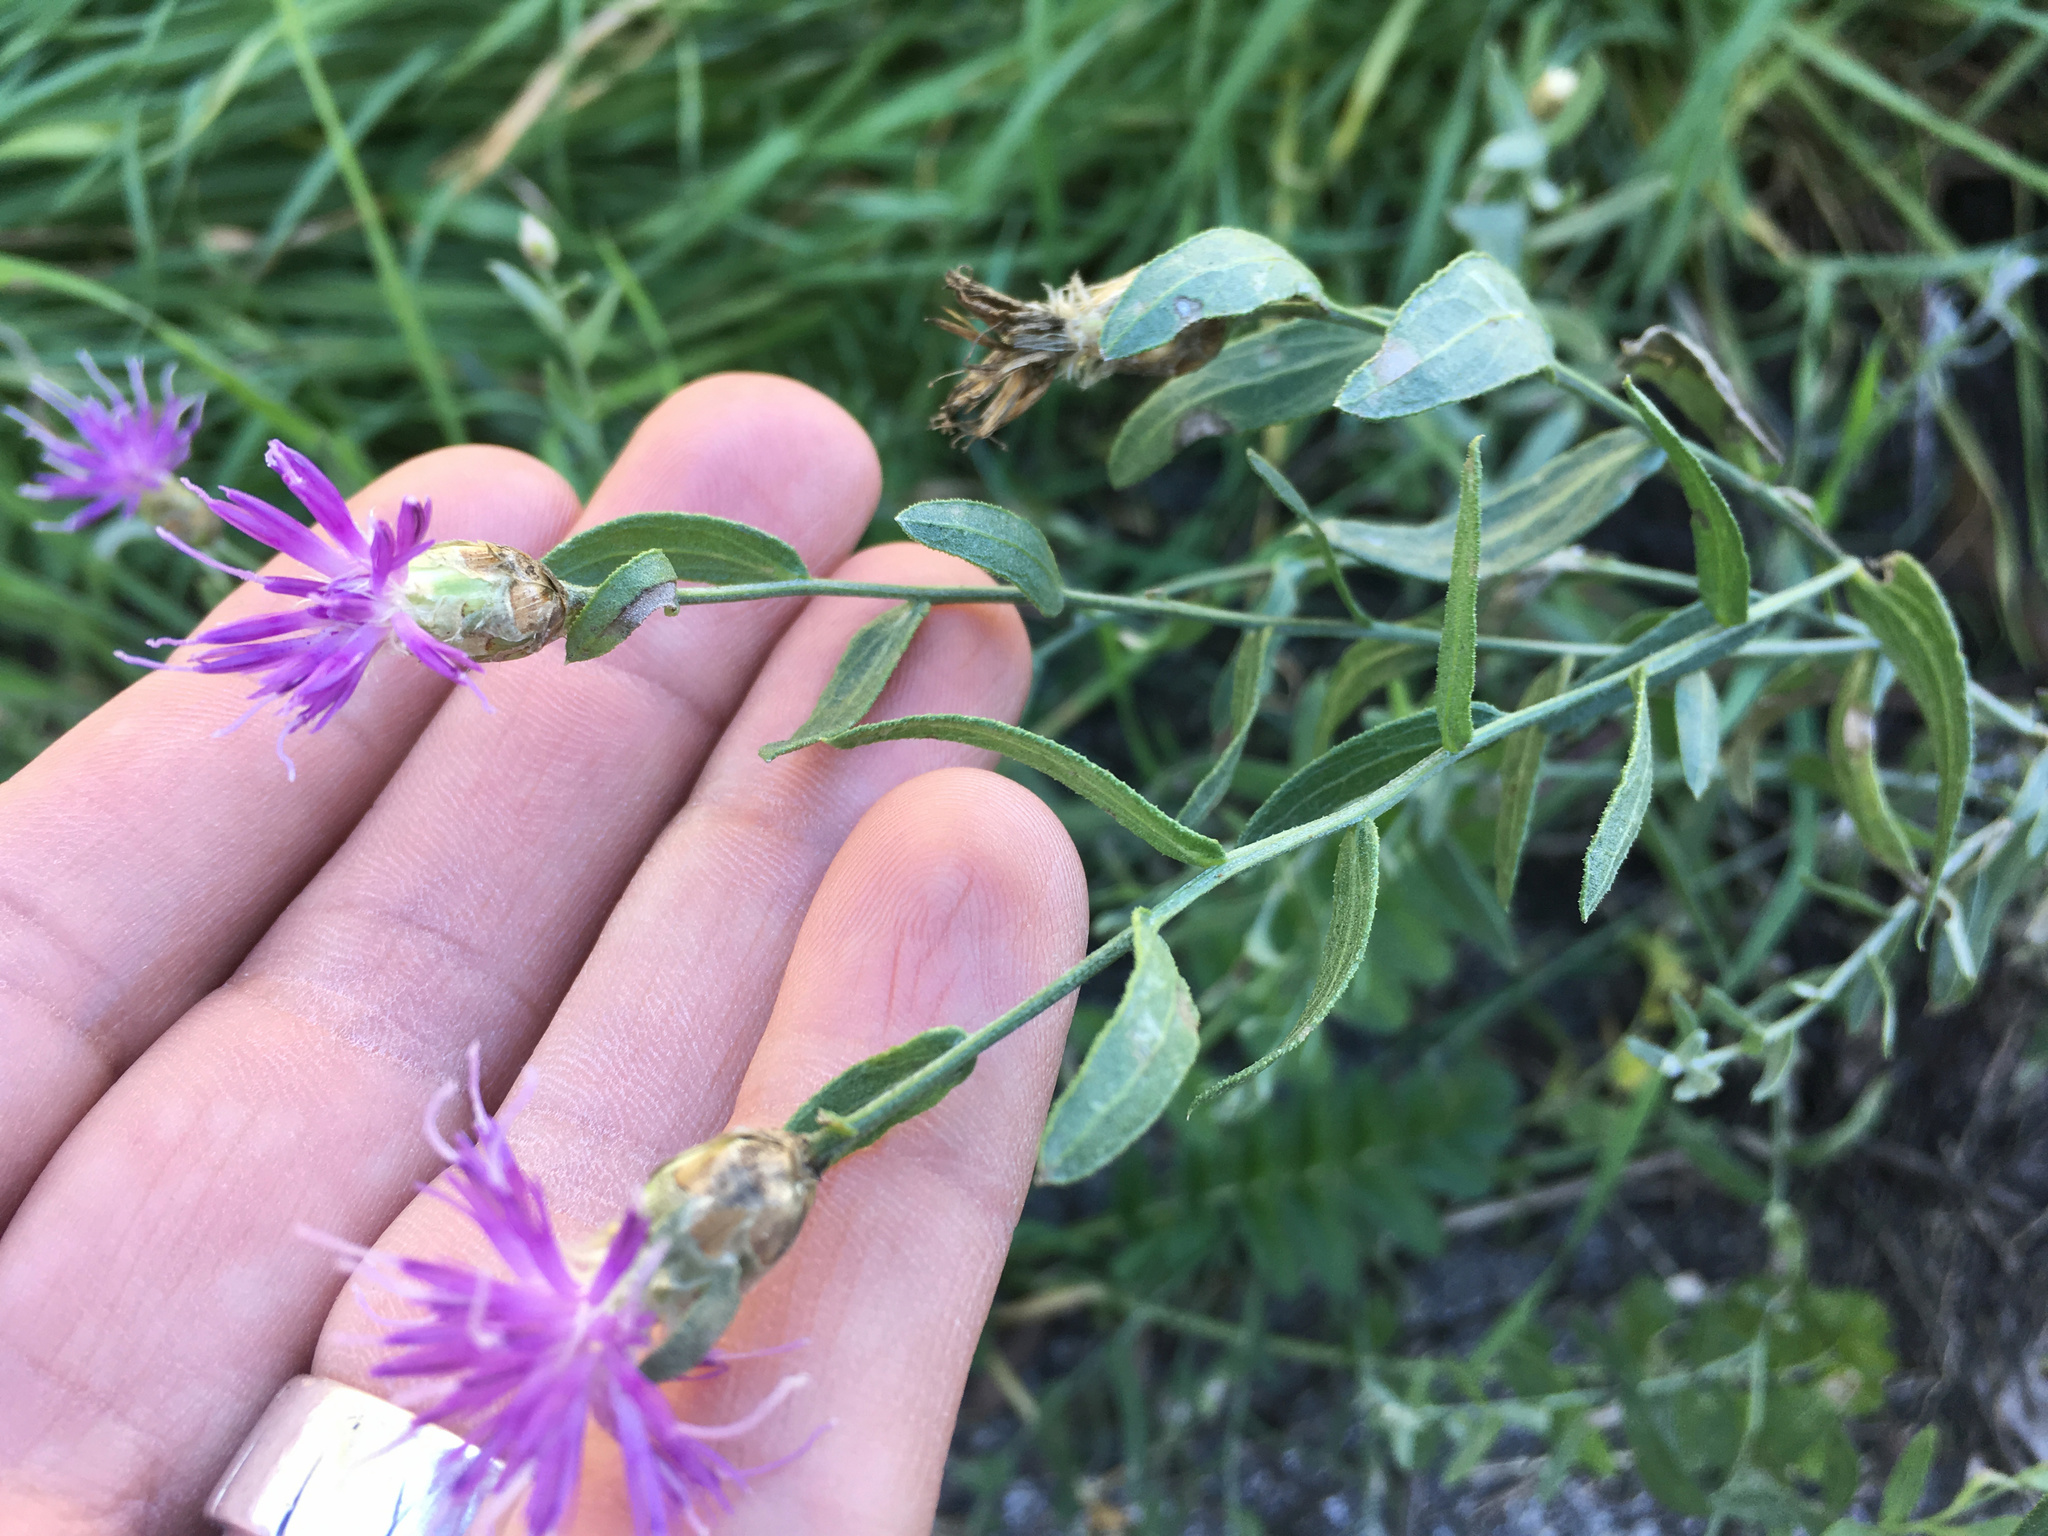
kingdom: Plantae
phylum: Tracheophyta
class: Magnoliopsida
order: Asterales
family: Asteraceae
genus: Leuzea
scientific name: Leuzea repens
